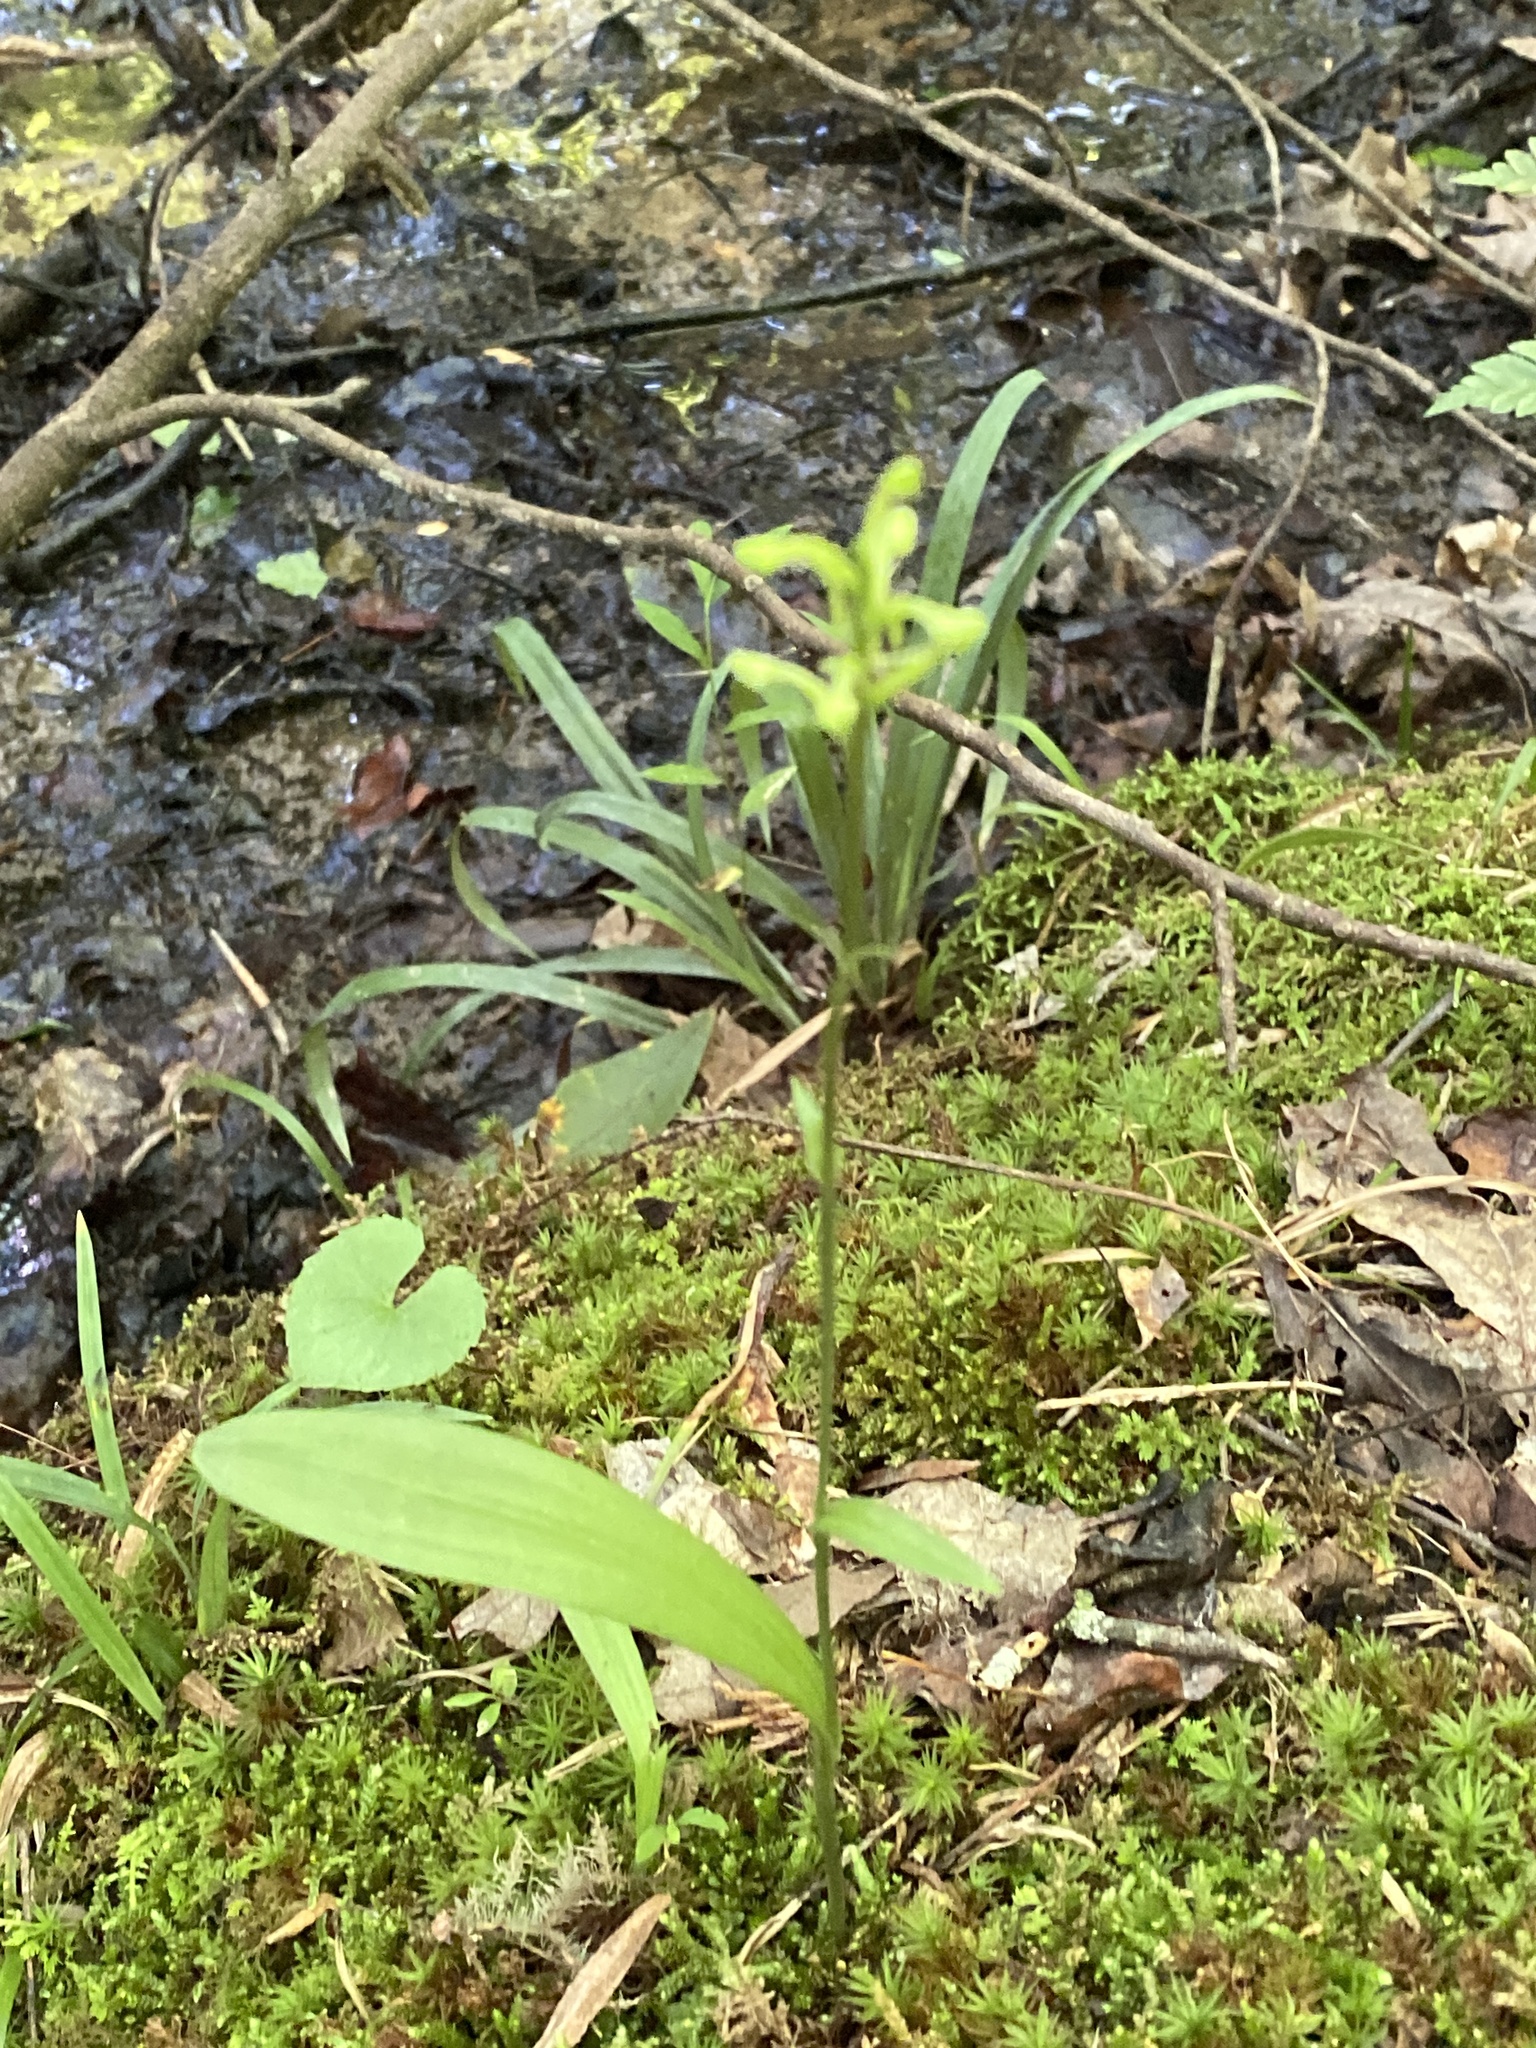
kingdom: Plantae
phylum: Tracheophyta
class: Liliopsida
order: Asparagales
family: Orchidaceae
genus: Platanthera
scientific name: Platanthera clavellata
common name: Club-spur orchid
